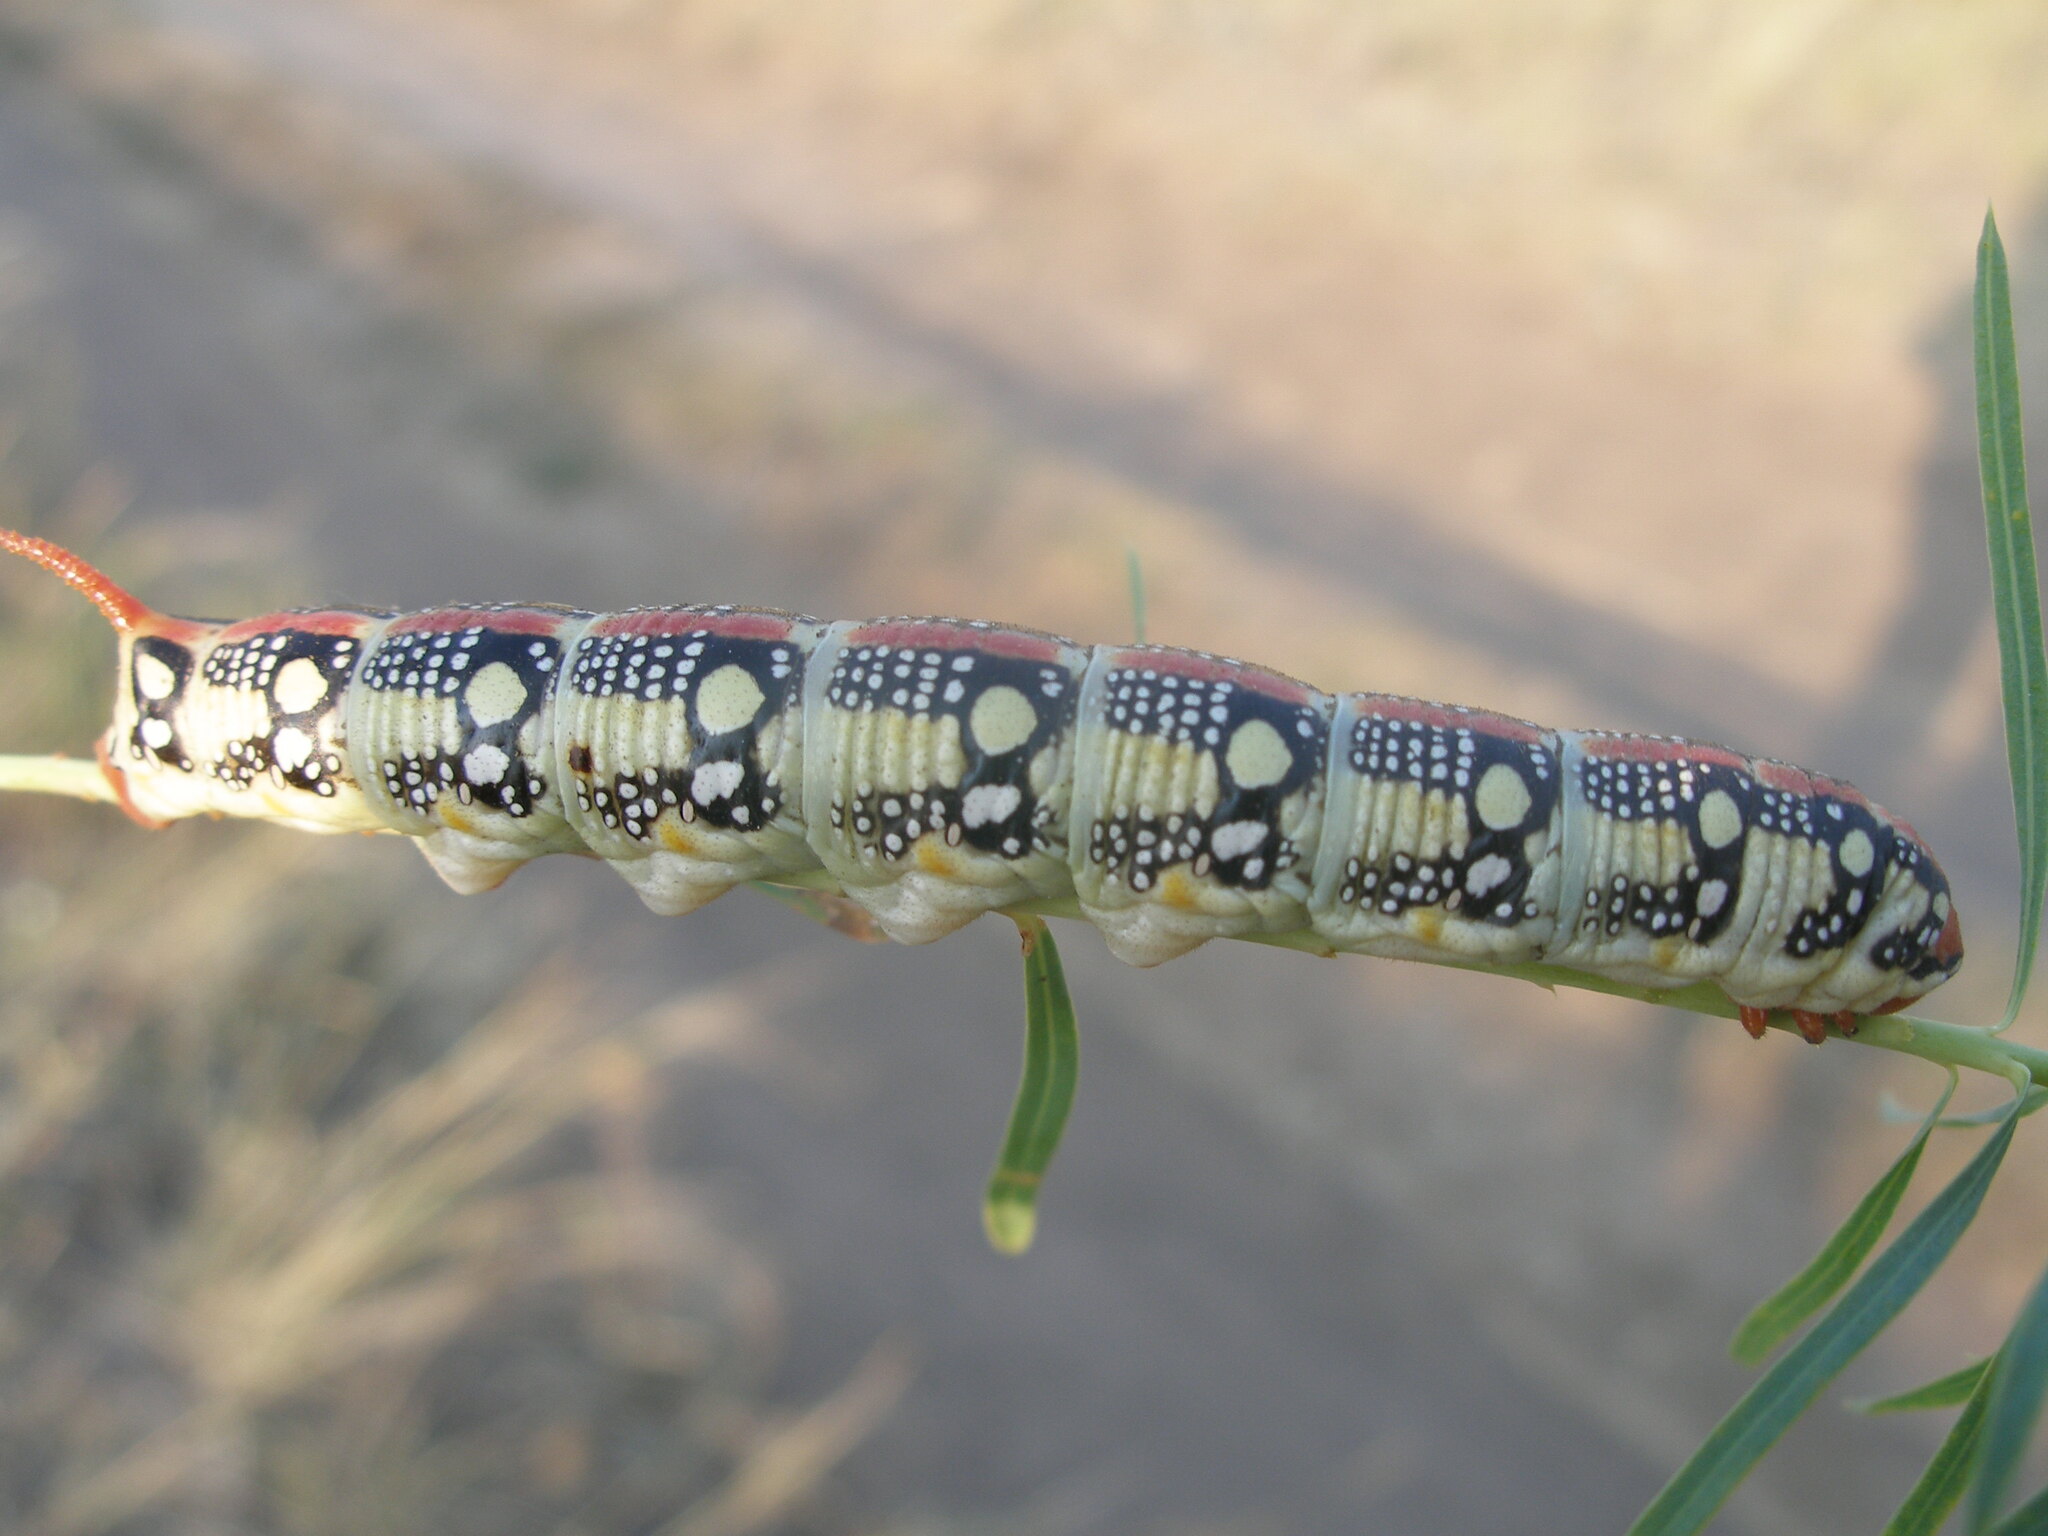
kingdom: Animalia
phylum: Arthropoda
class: Insecta
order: Lepidoptera
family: Sphingidae
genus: Hyles
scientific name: Hyles euphorbiae
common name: Spurge hawk-moth
